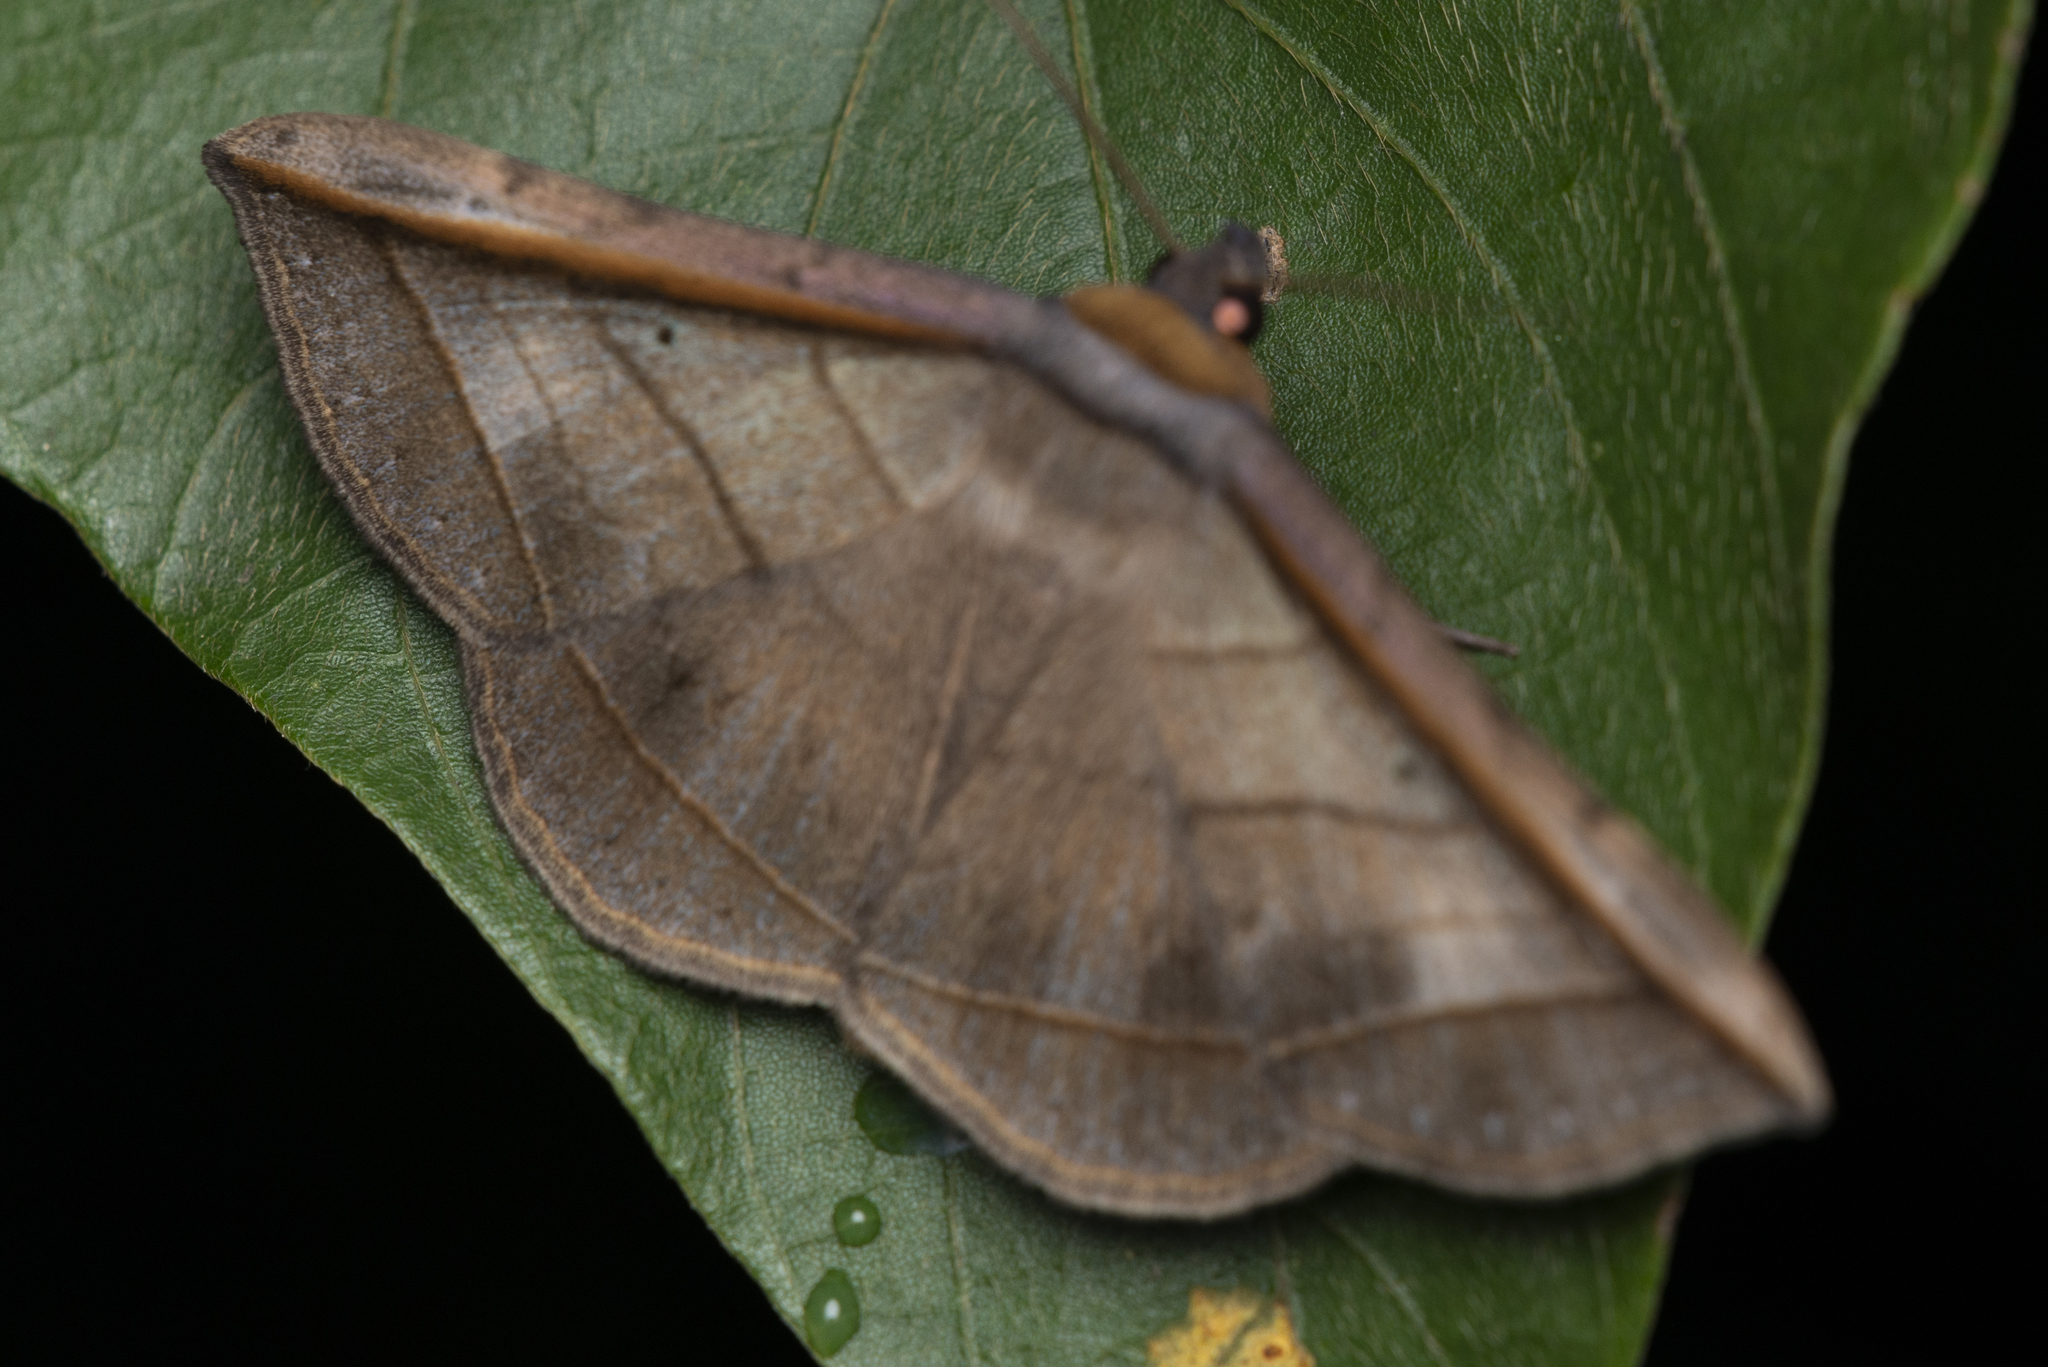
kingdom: Animalia
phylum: Arthropoda
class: Insecta
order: Lepidoptera
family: Erebidae
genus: Entomogramma
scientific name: Entomogramma fautrix
